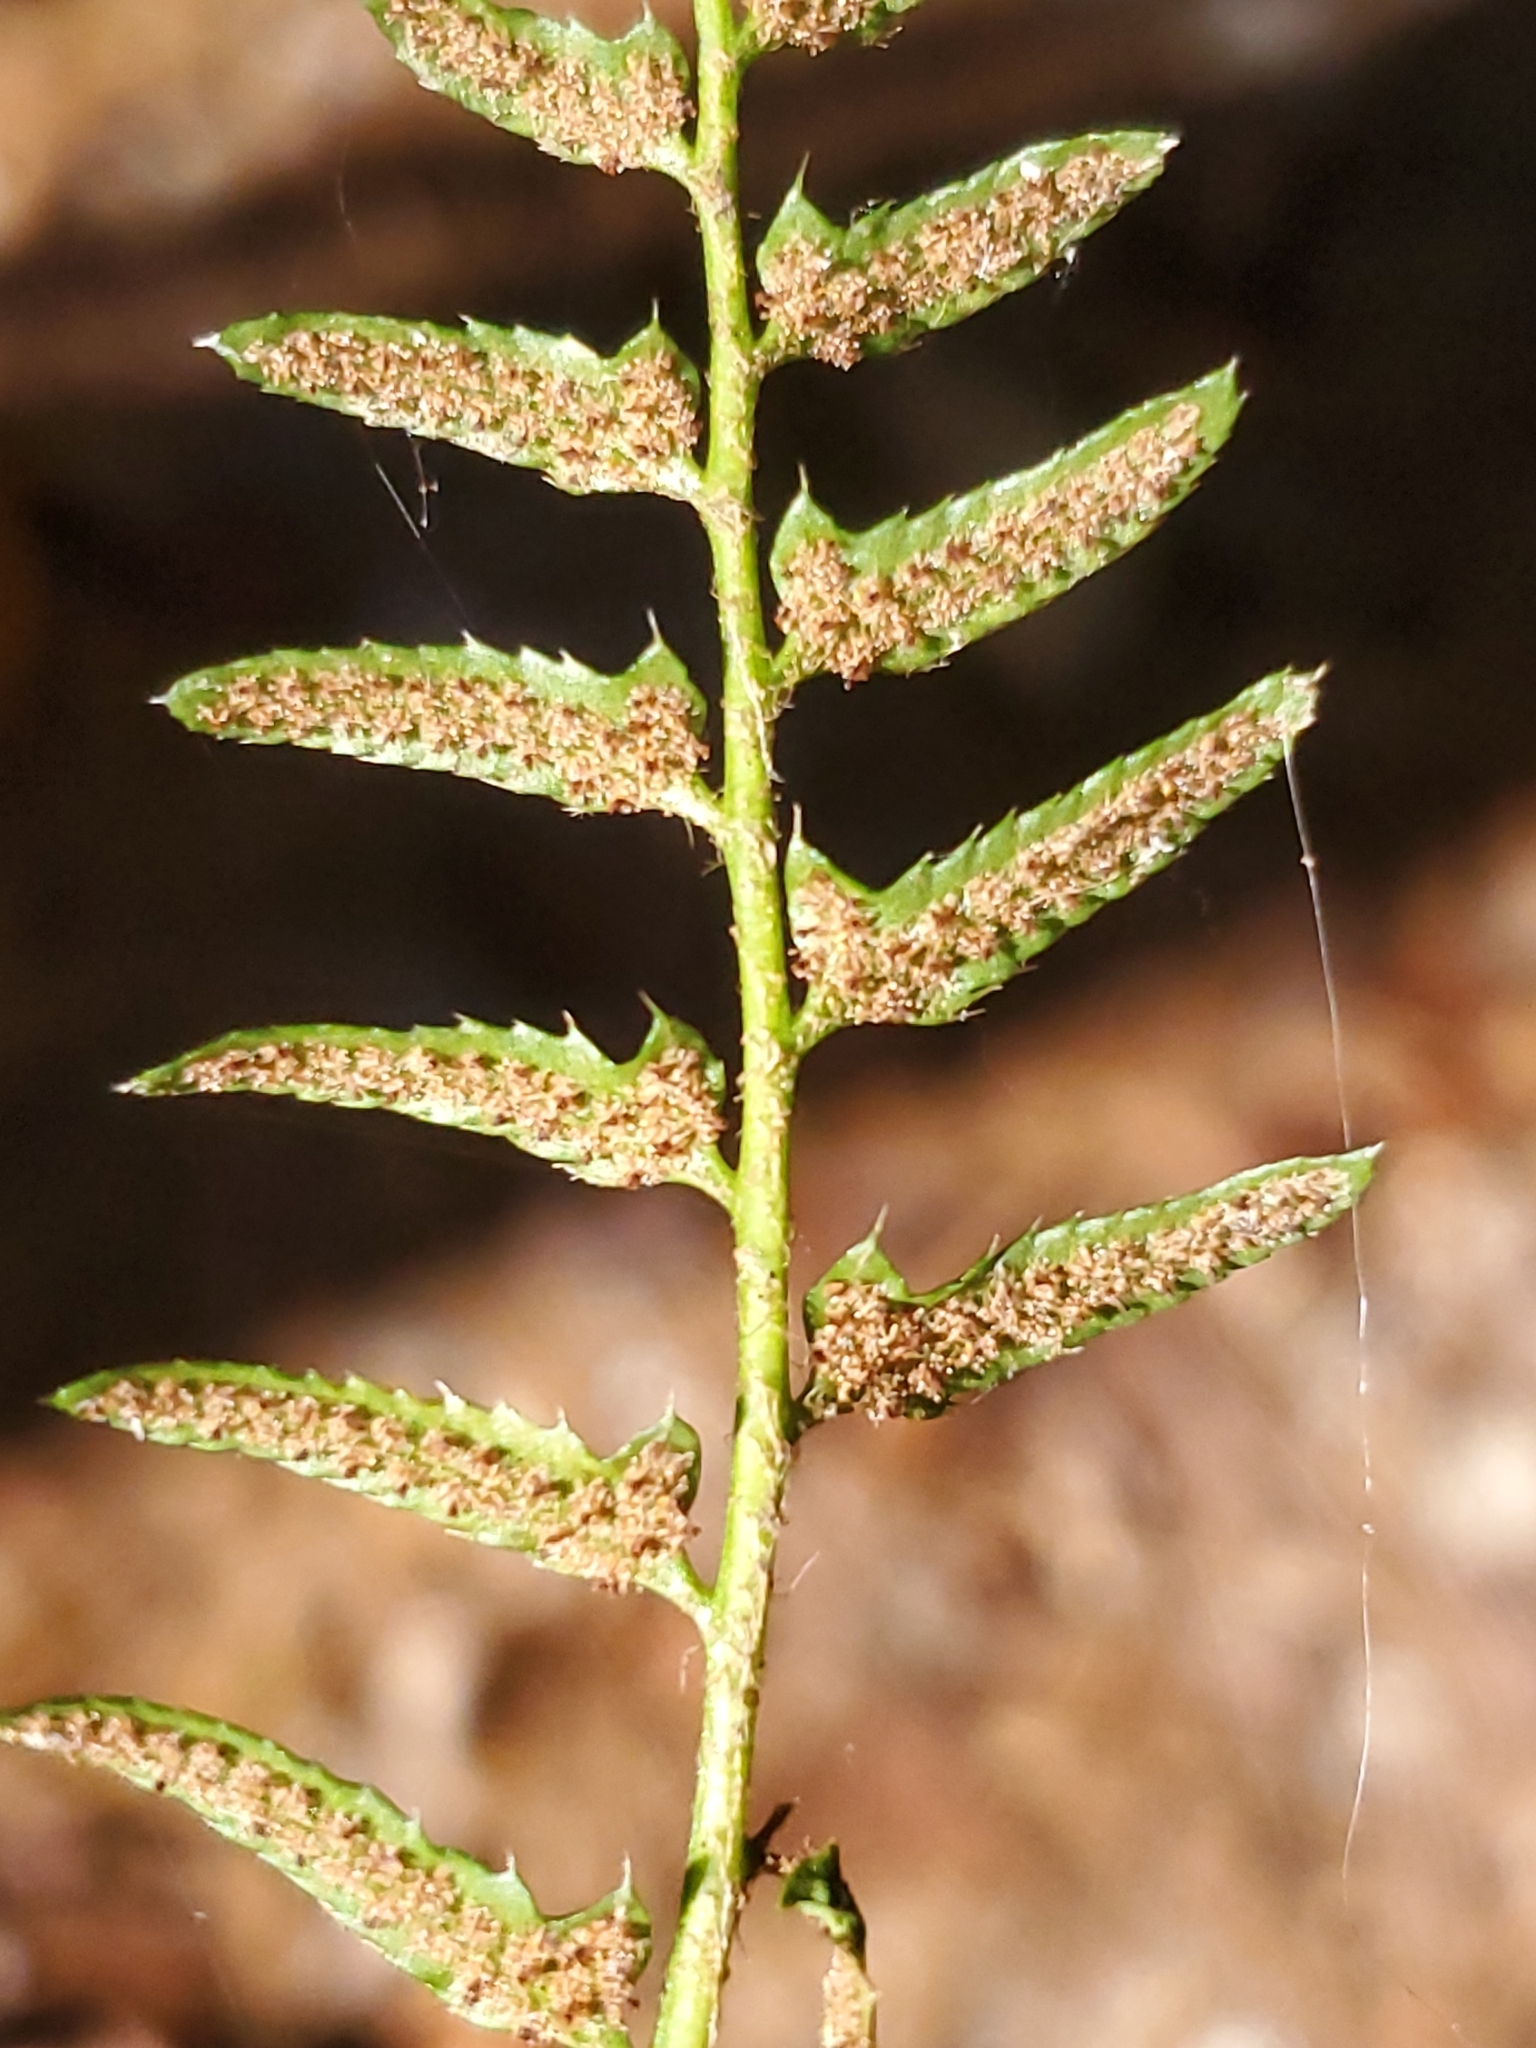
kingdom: Plantae
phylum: Tracheophyta
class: Polypodiopsida
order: Polypodiales
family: Dryopteridaceae
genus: Polystichum
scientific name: Polystichum acrostichoides
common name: Christmas fern
